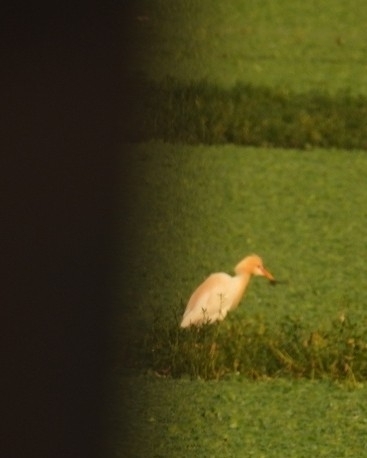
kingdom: Animalia
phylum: Chordata
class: Aves
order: Pelecaniformes
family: Ardeidae
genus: Bubulcus
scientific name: Bubulcus coromandus
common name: Eastern cattle egret
